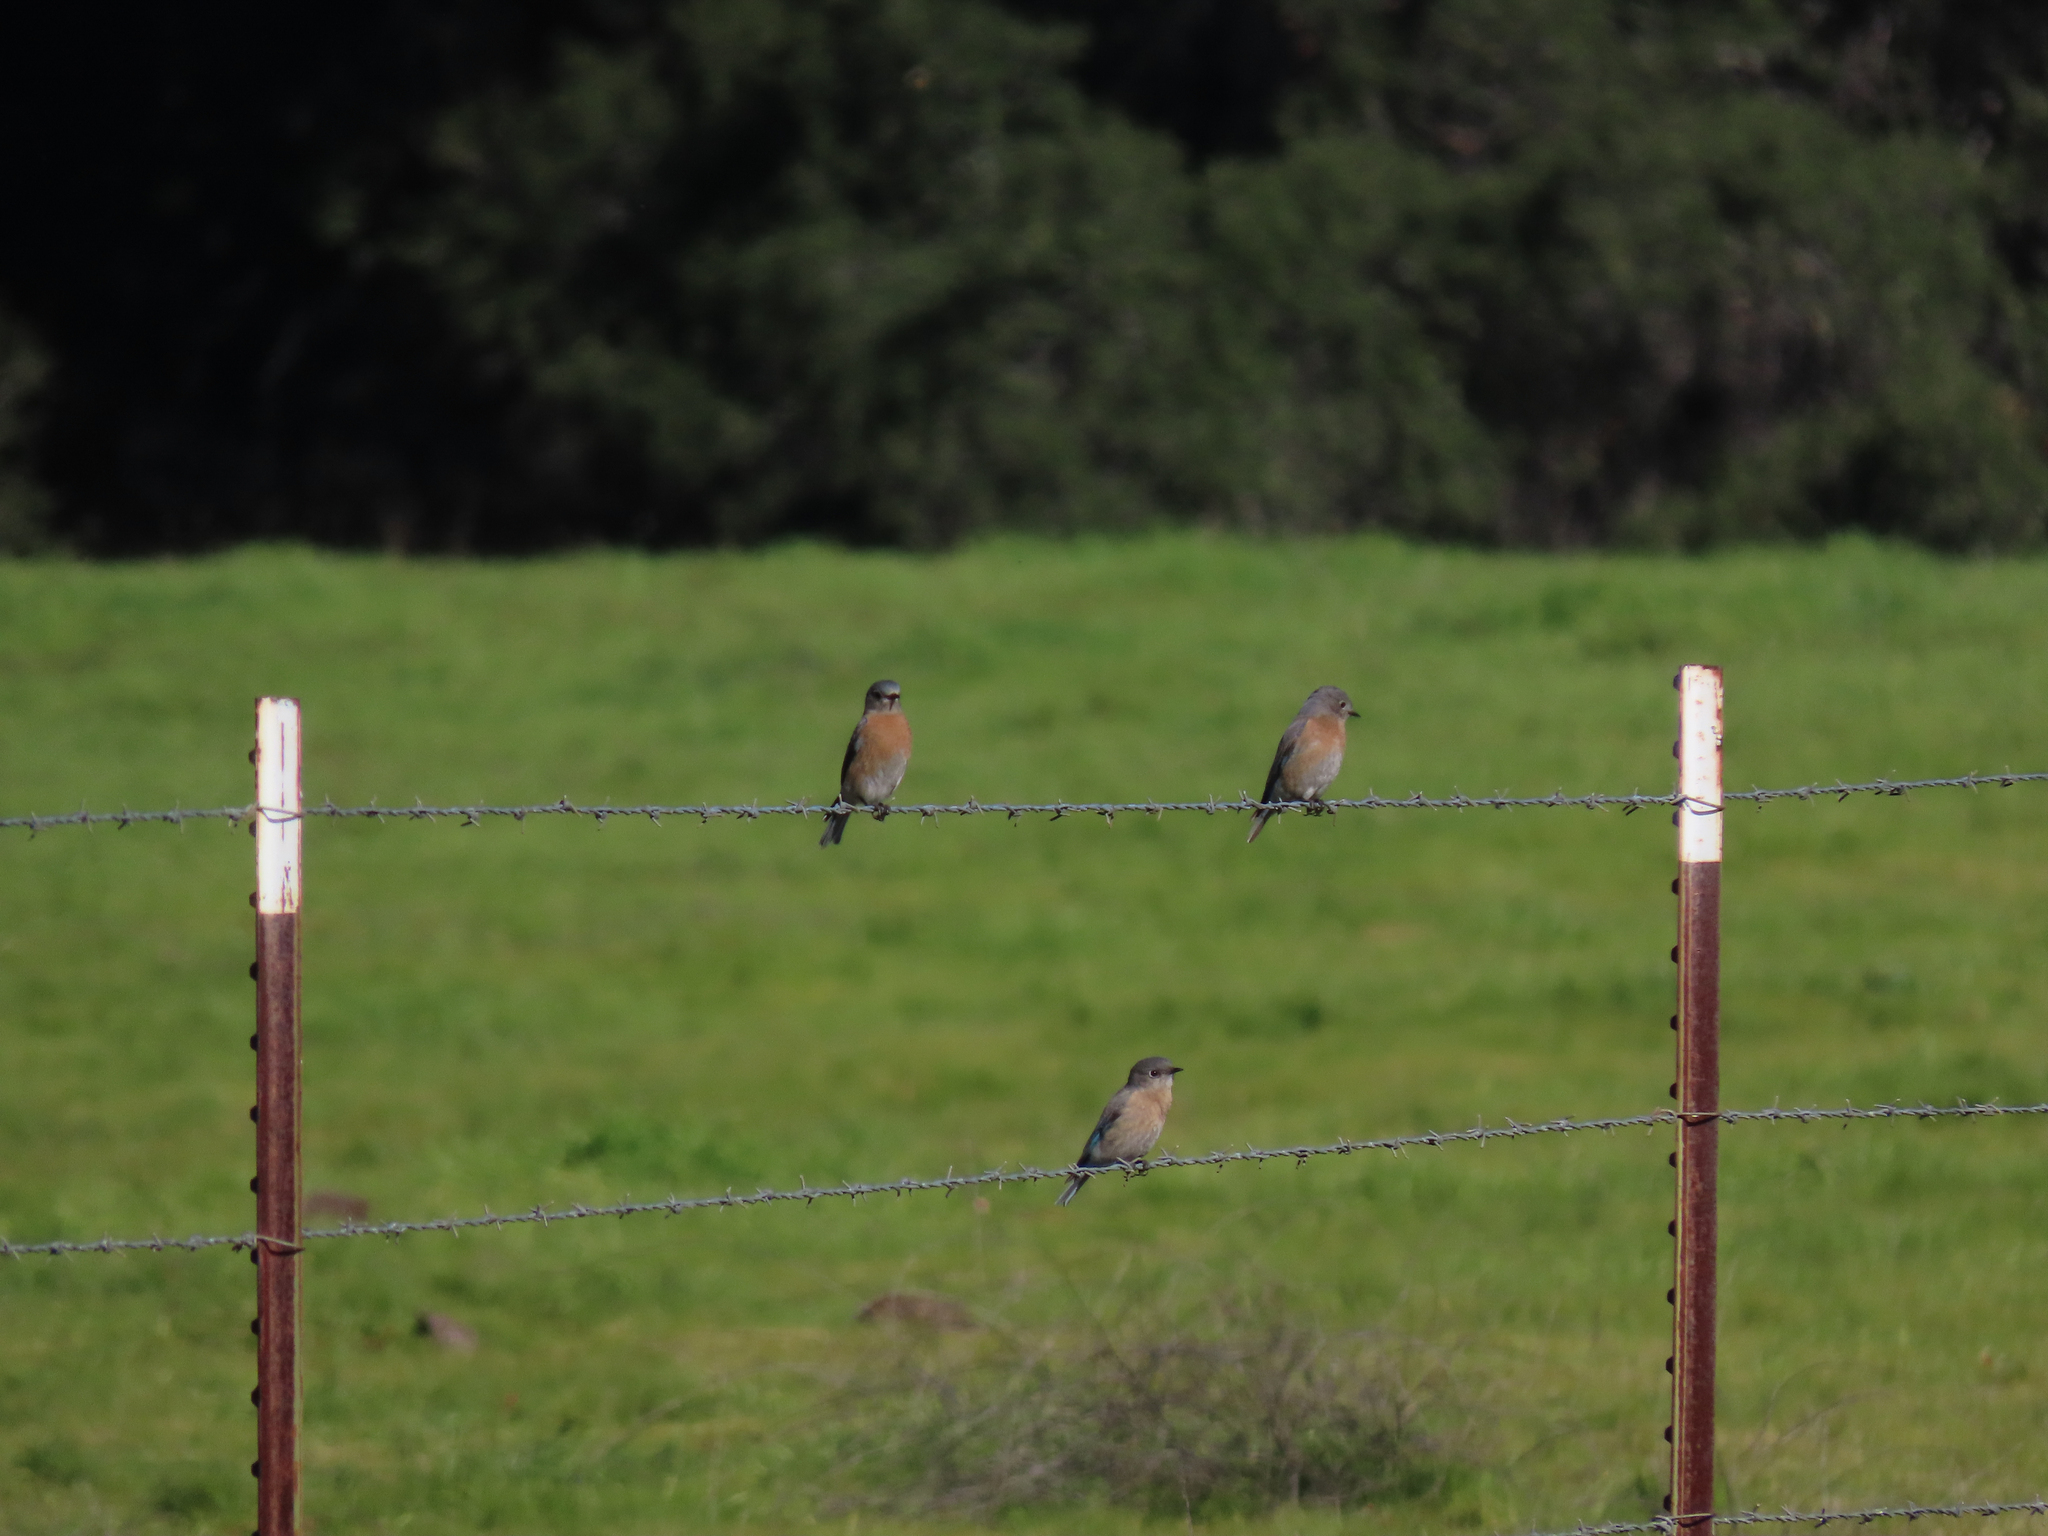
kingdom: Animalia
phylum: Chordata
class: Aves
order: Passeriformes
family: Turdidae
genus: Sialia
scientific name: Sialia mexicana
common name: Western bluebird
